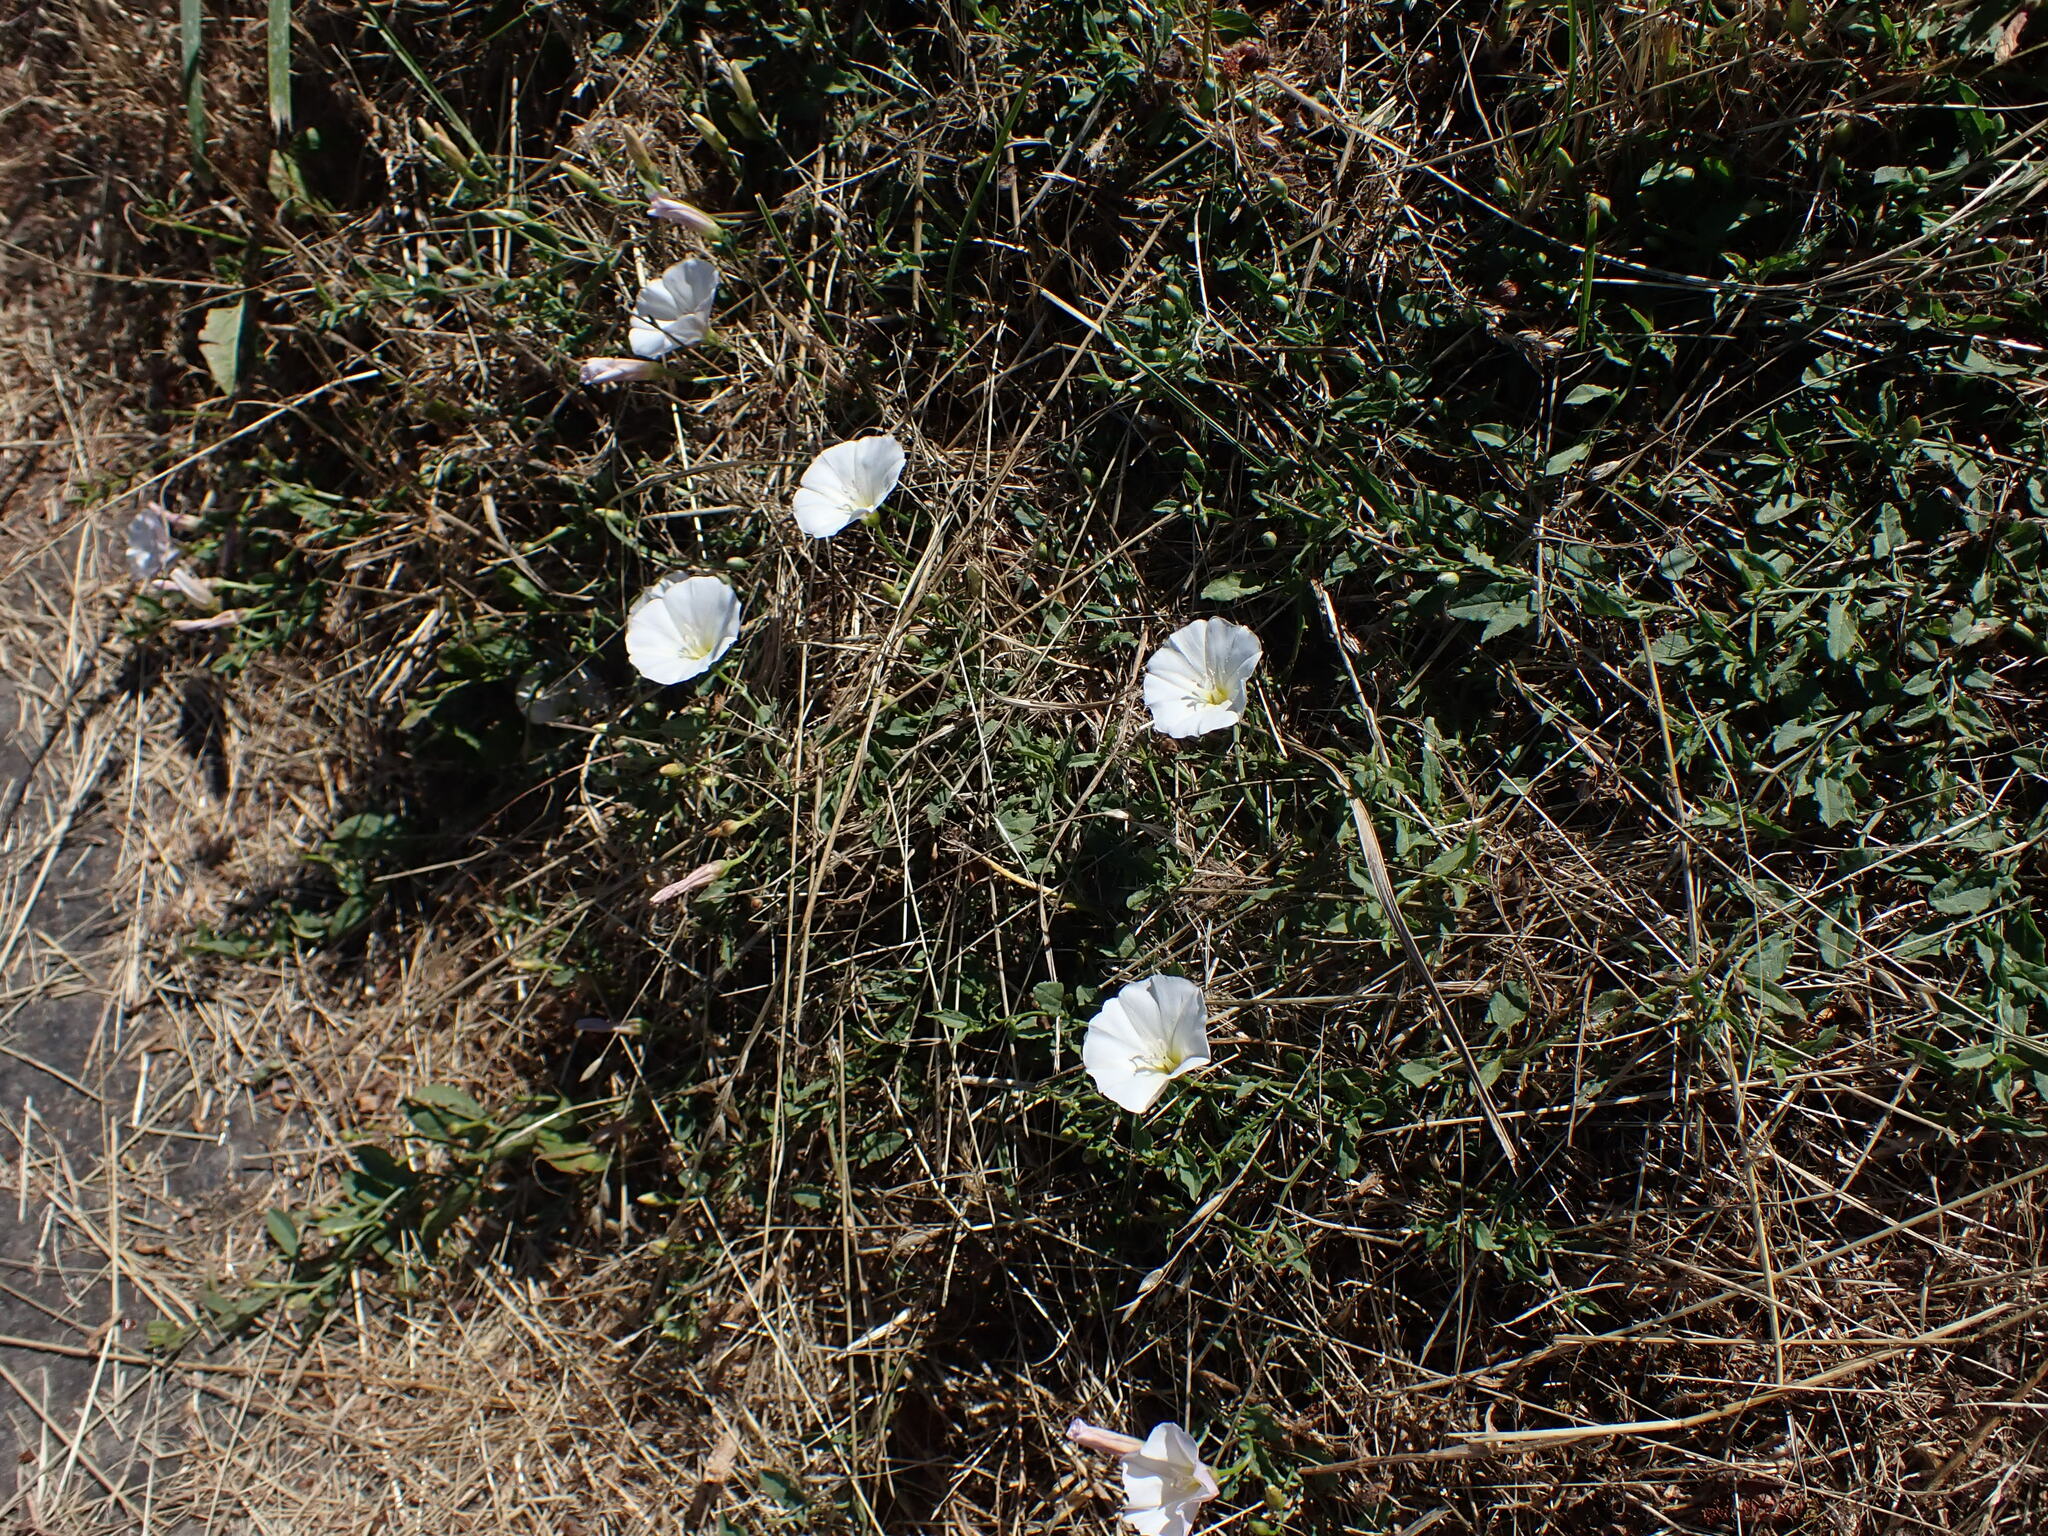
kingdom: Plantae
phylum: Tracheophyta
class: Magnoliopsida
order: Solanales
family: Convolvulaceae
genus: Convolvulus
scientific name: Convolvulus arvensis
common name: Field bindweed
